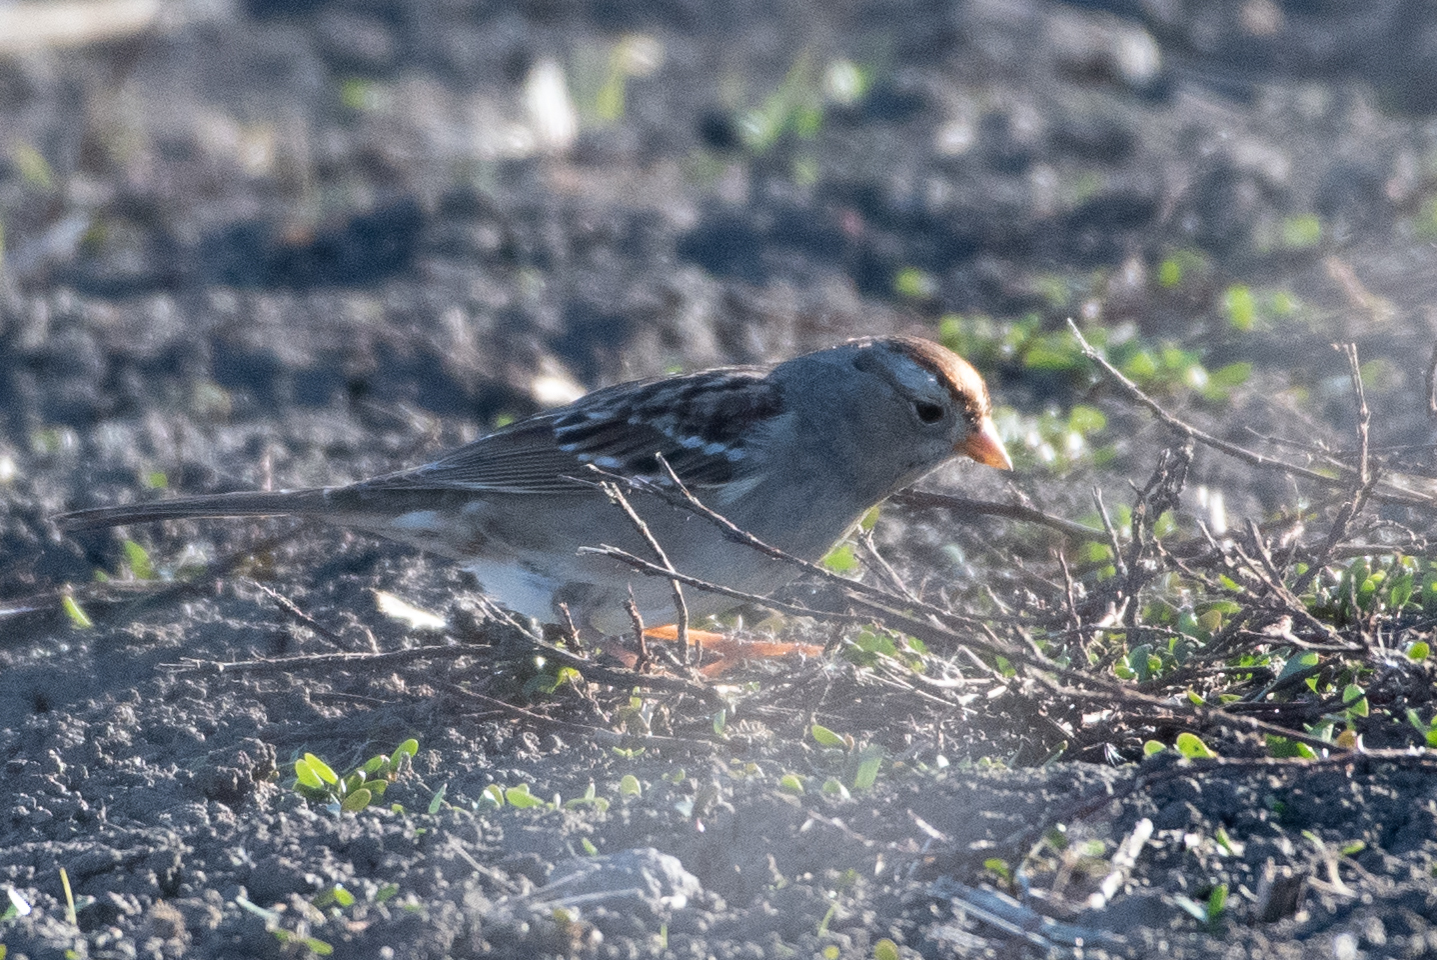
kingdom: Animalia
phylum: Chordata
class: Aves
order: Passeriformes
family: Passerellidae
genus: Zonotrichia
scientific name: Zonotrichia leucophrys
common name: White-crowned sparrow
